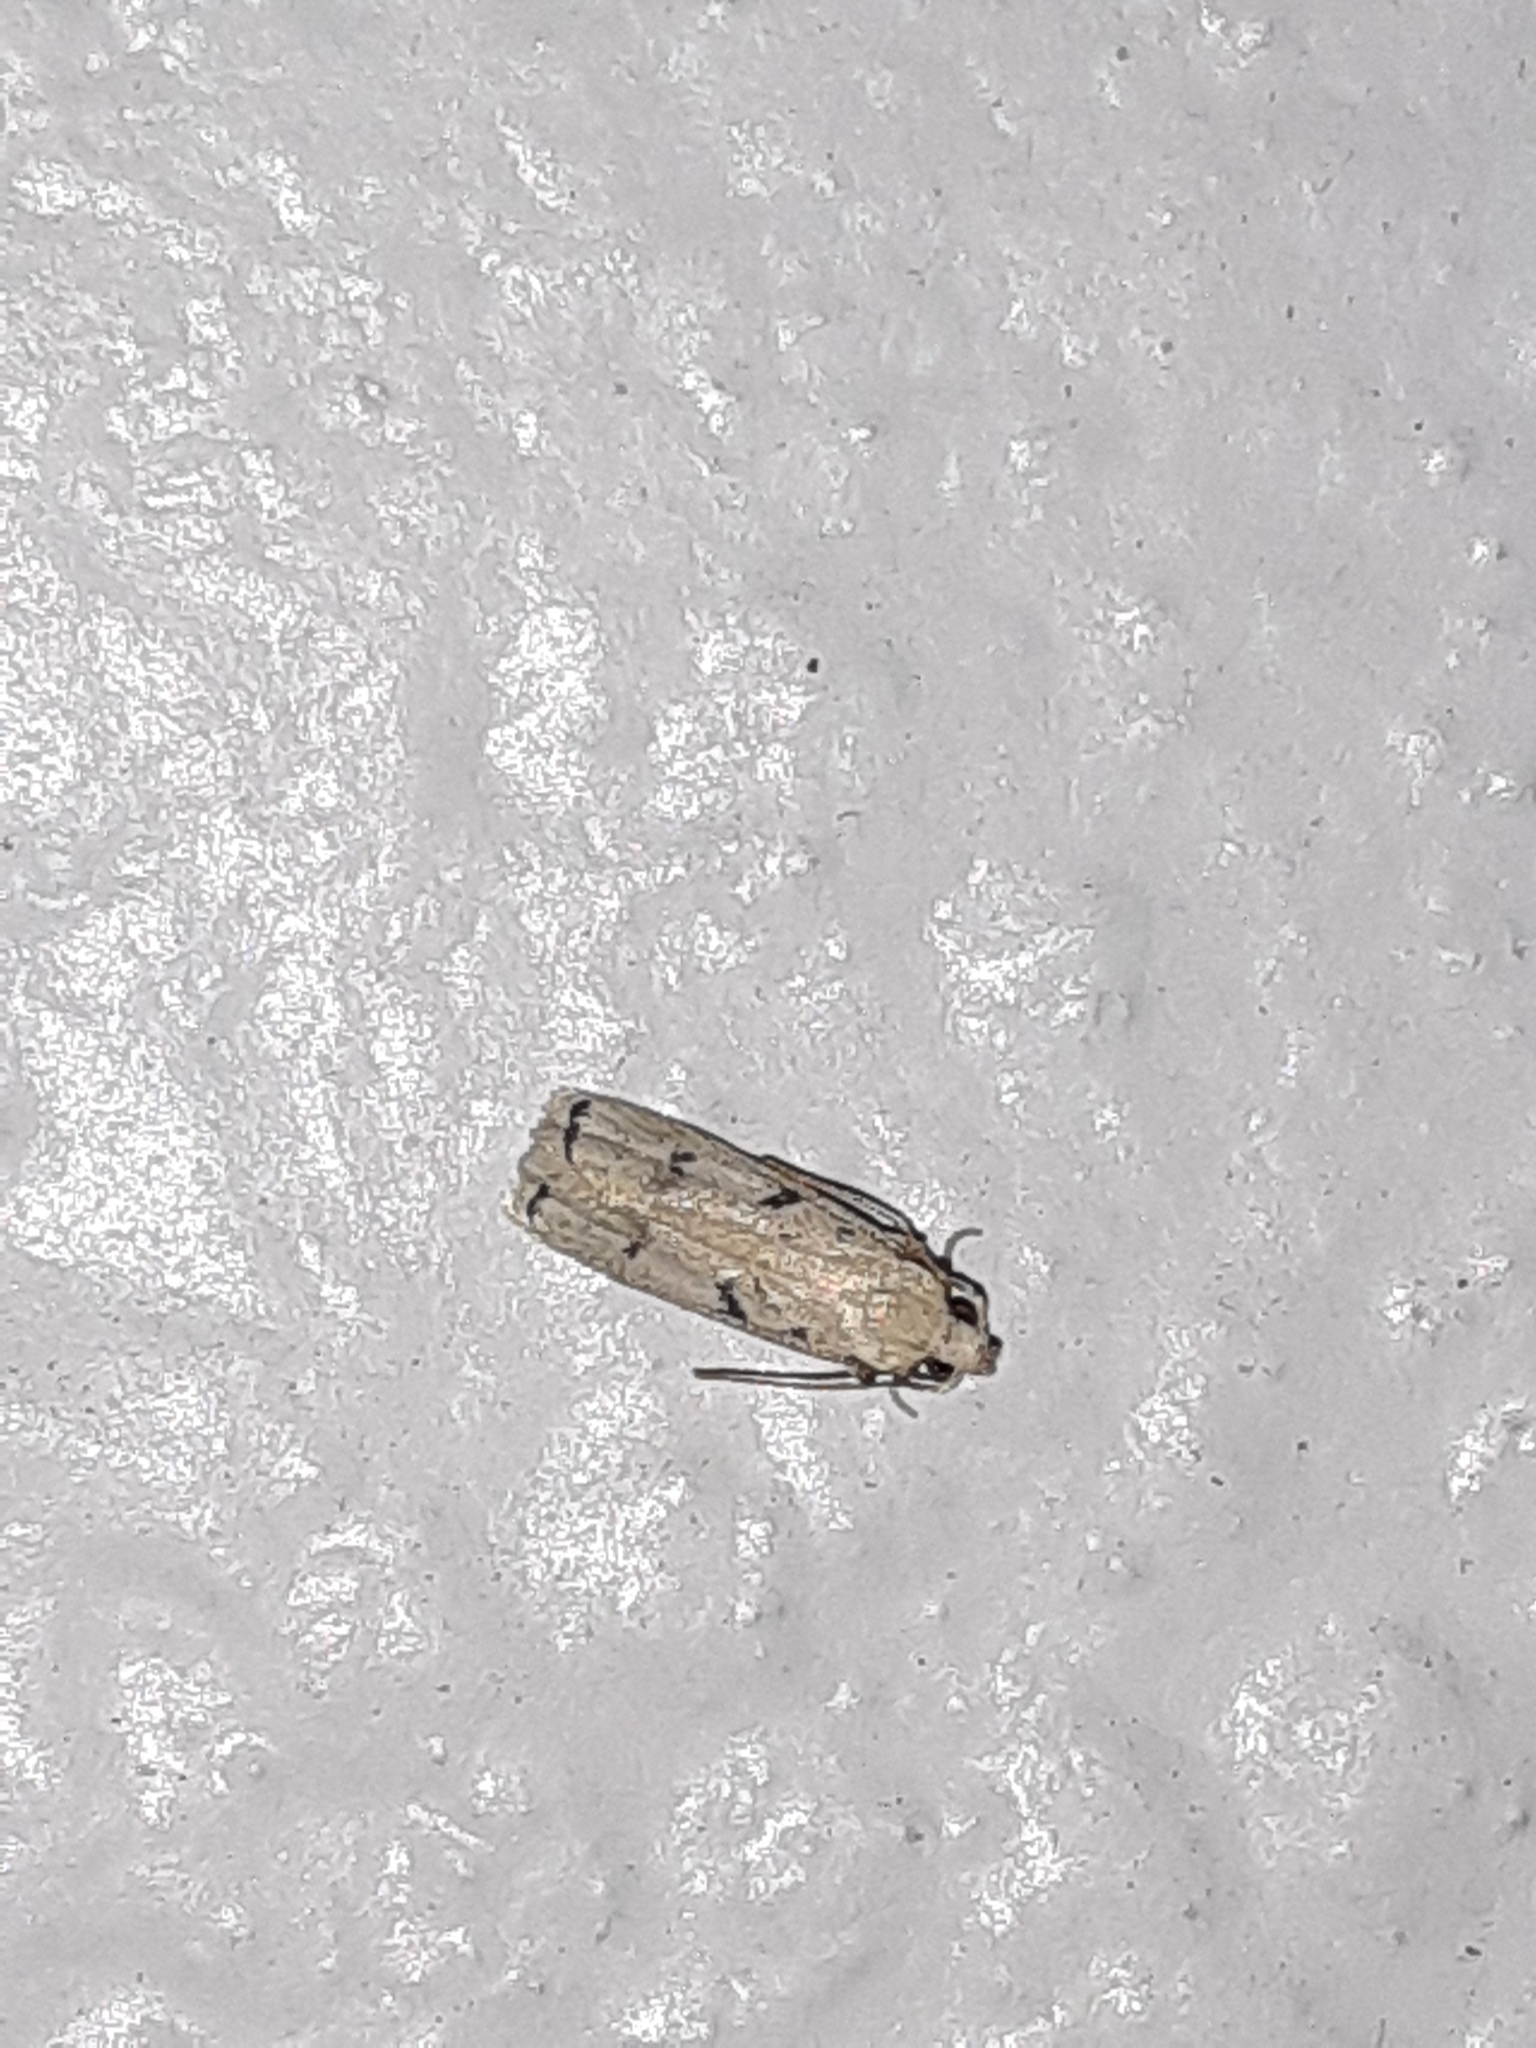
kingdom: Animalia
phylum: Arthropoda
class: Insecta
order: Lepidoptera
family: Autostichidae
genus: Glyphidocera
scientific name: Glyphidocera lactiflosella
